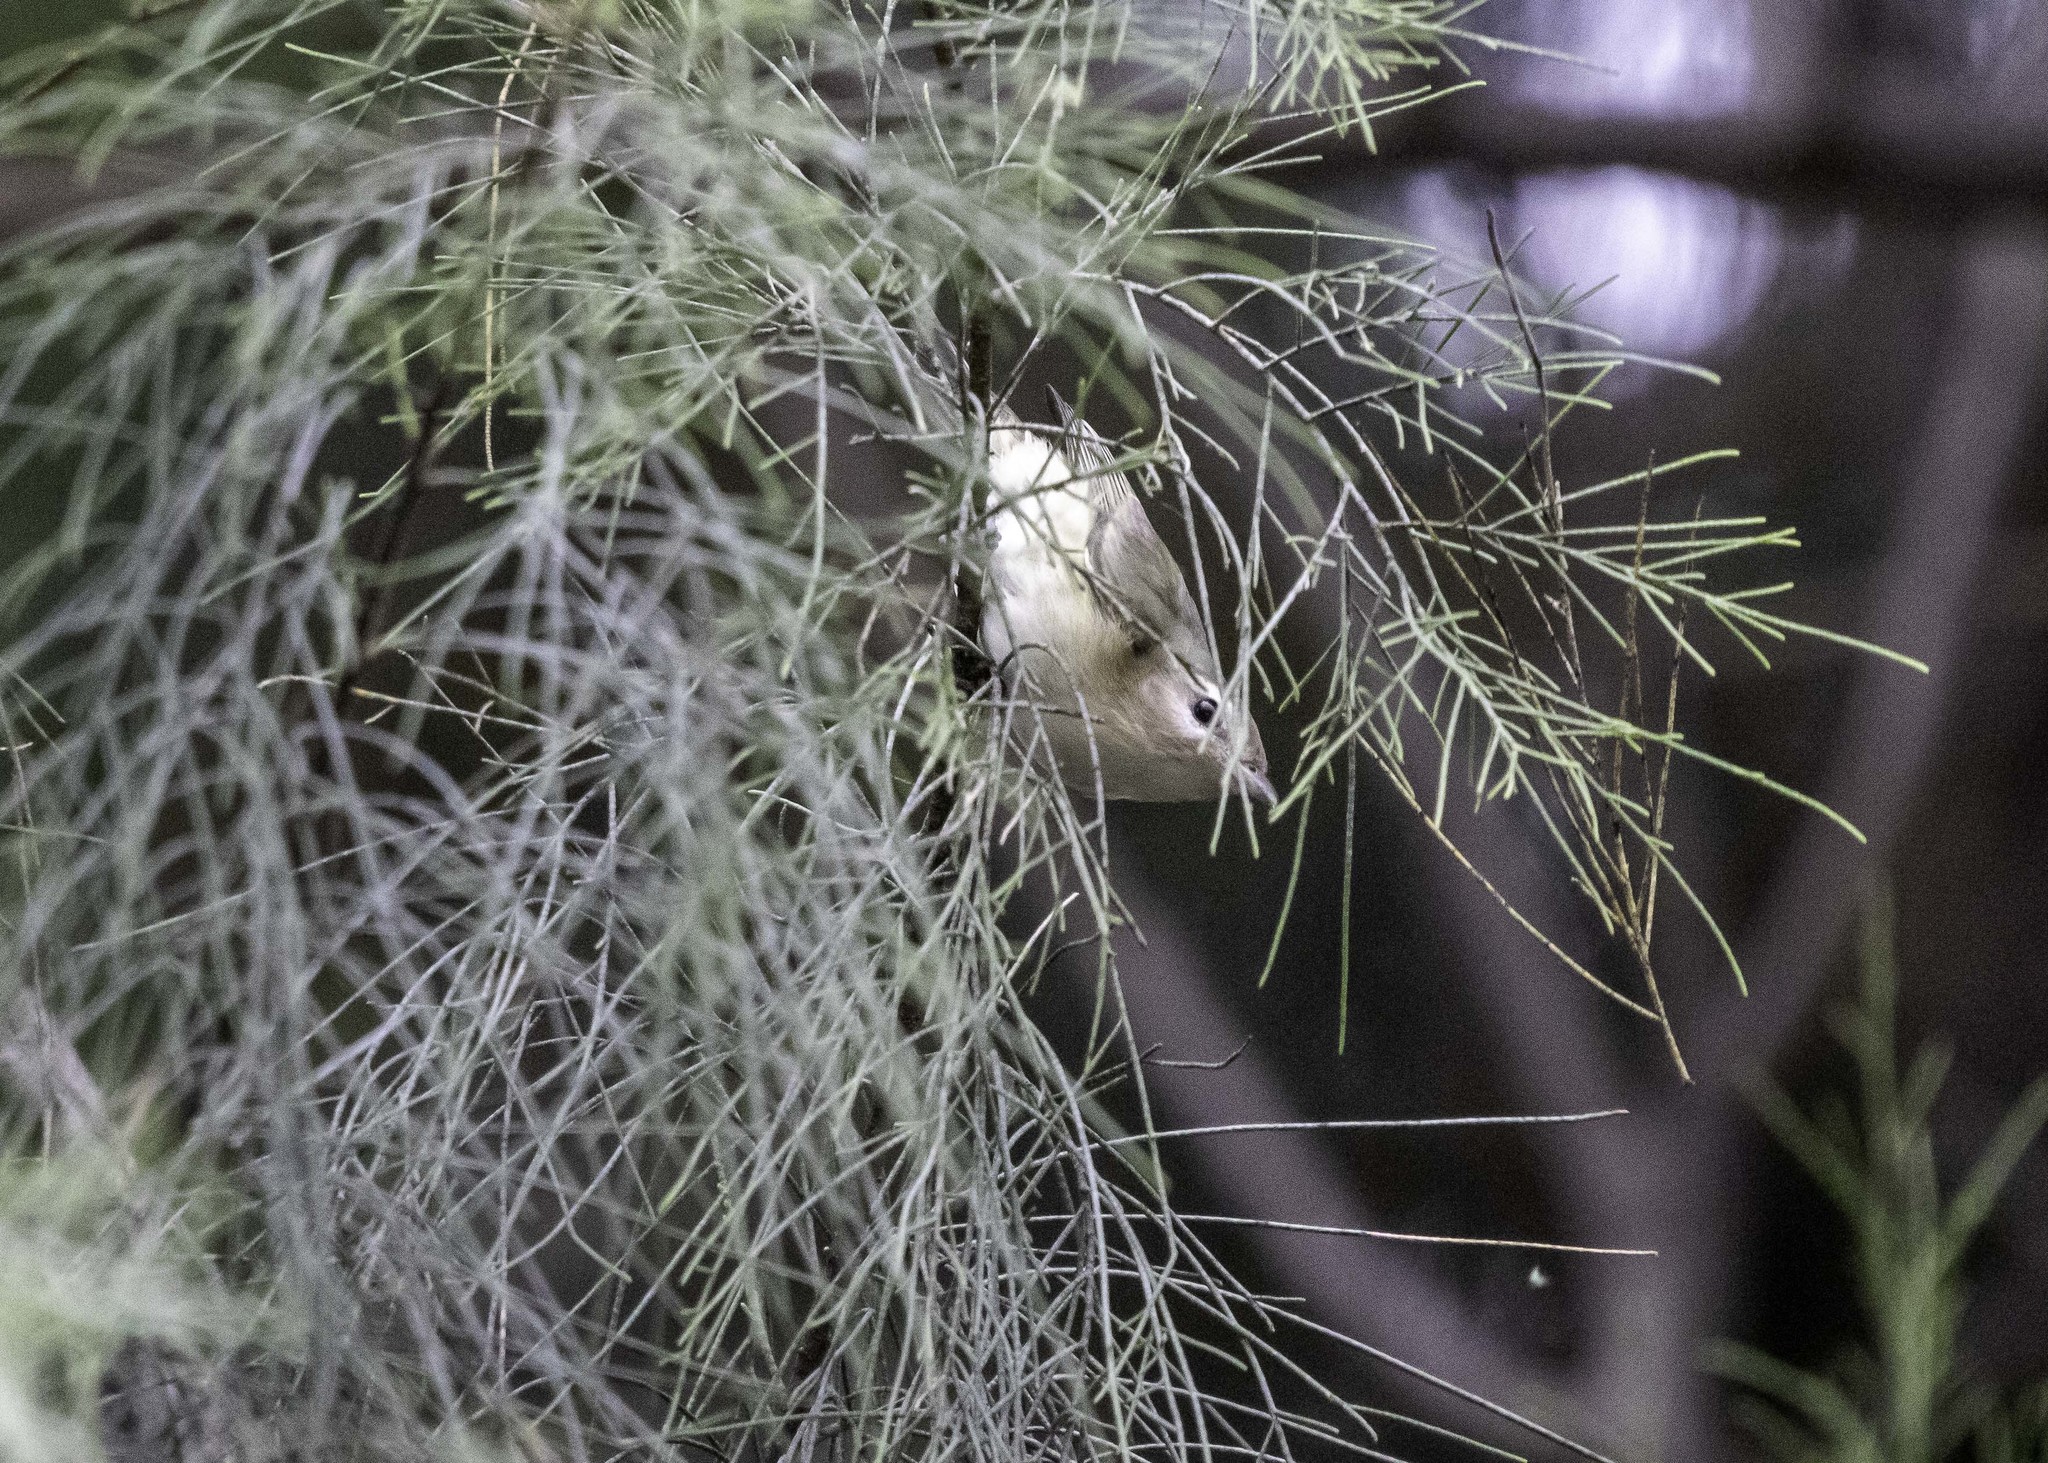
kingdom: Animalia
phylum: Chordata
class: Aves
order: Passeriformes
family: Vireonidae
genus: Vireo
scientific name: Vireo gilvus
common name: Warbling vireo
